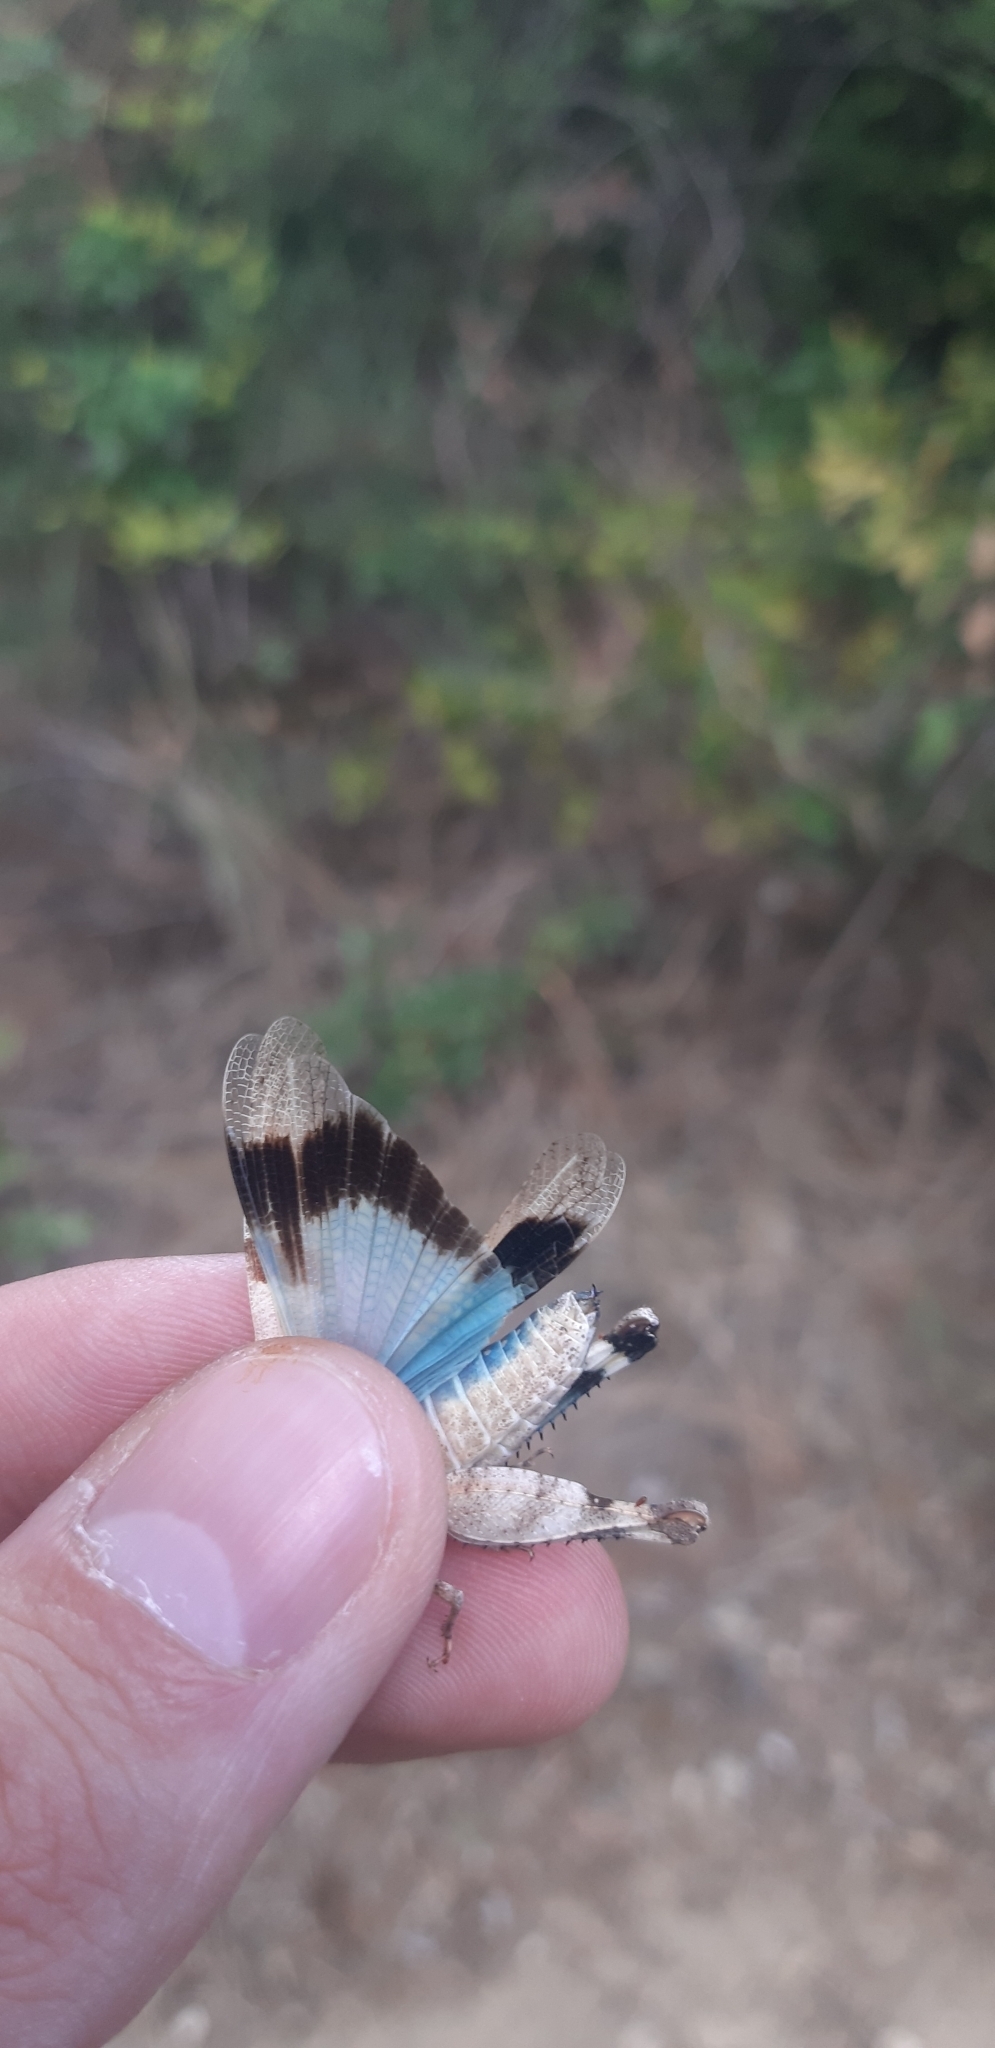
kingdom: Animalia
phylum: Arthropoda
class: Insecta
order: Orthoptera
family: Acrididae
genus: Oedipoda
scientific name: Oedipoda caerulescens
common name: Blue-winged grasshopper
